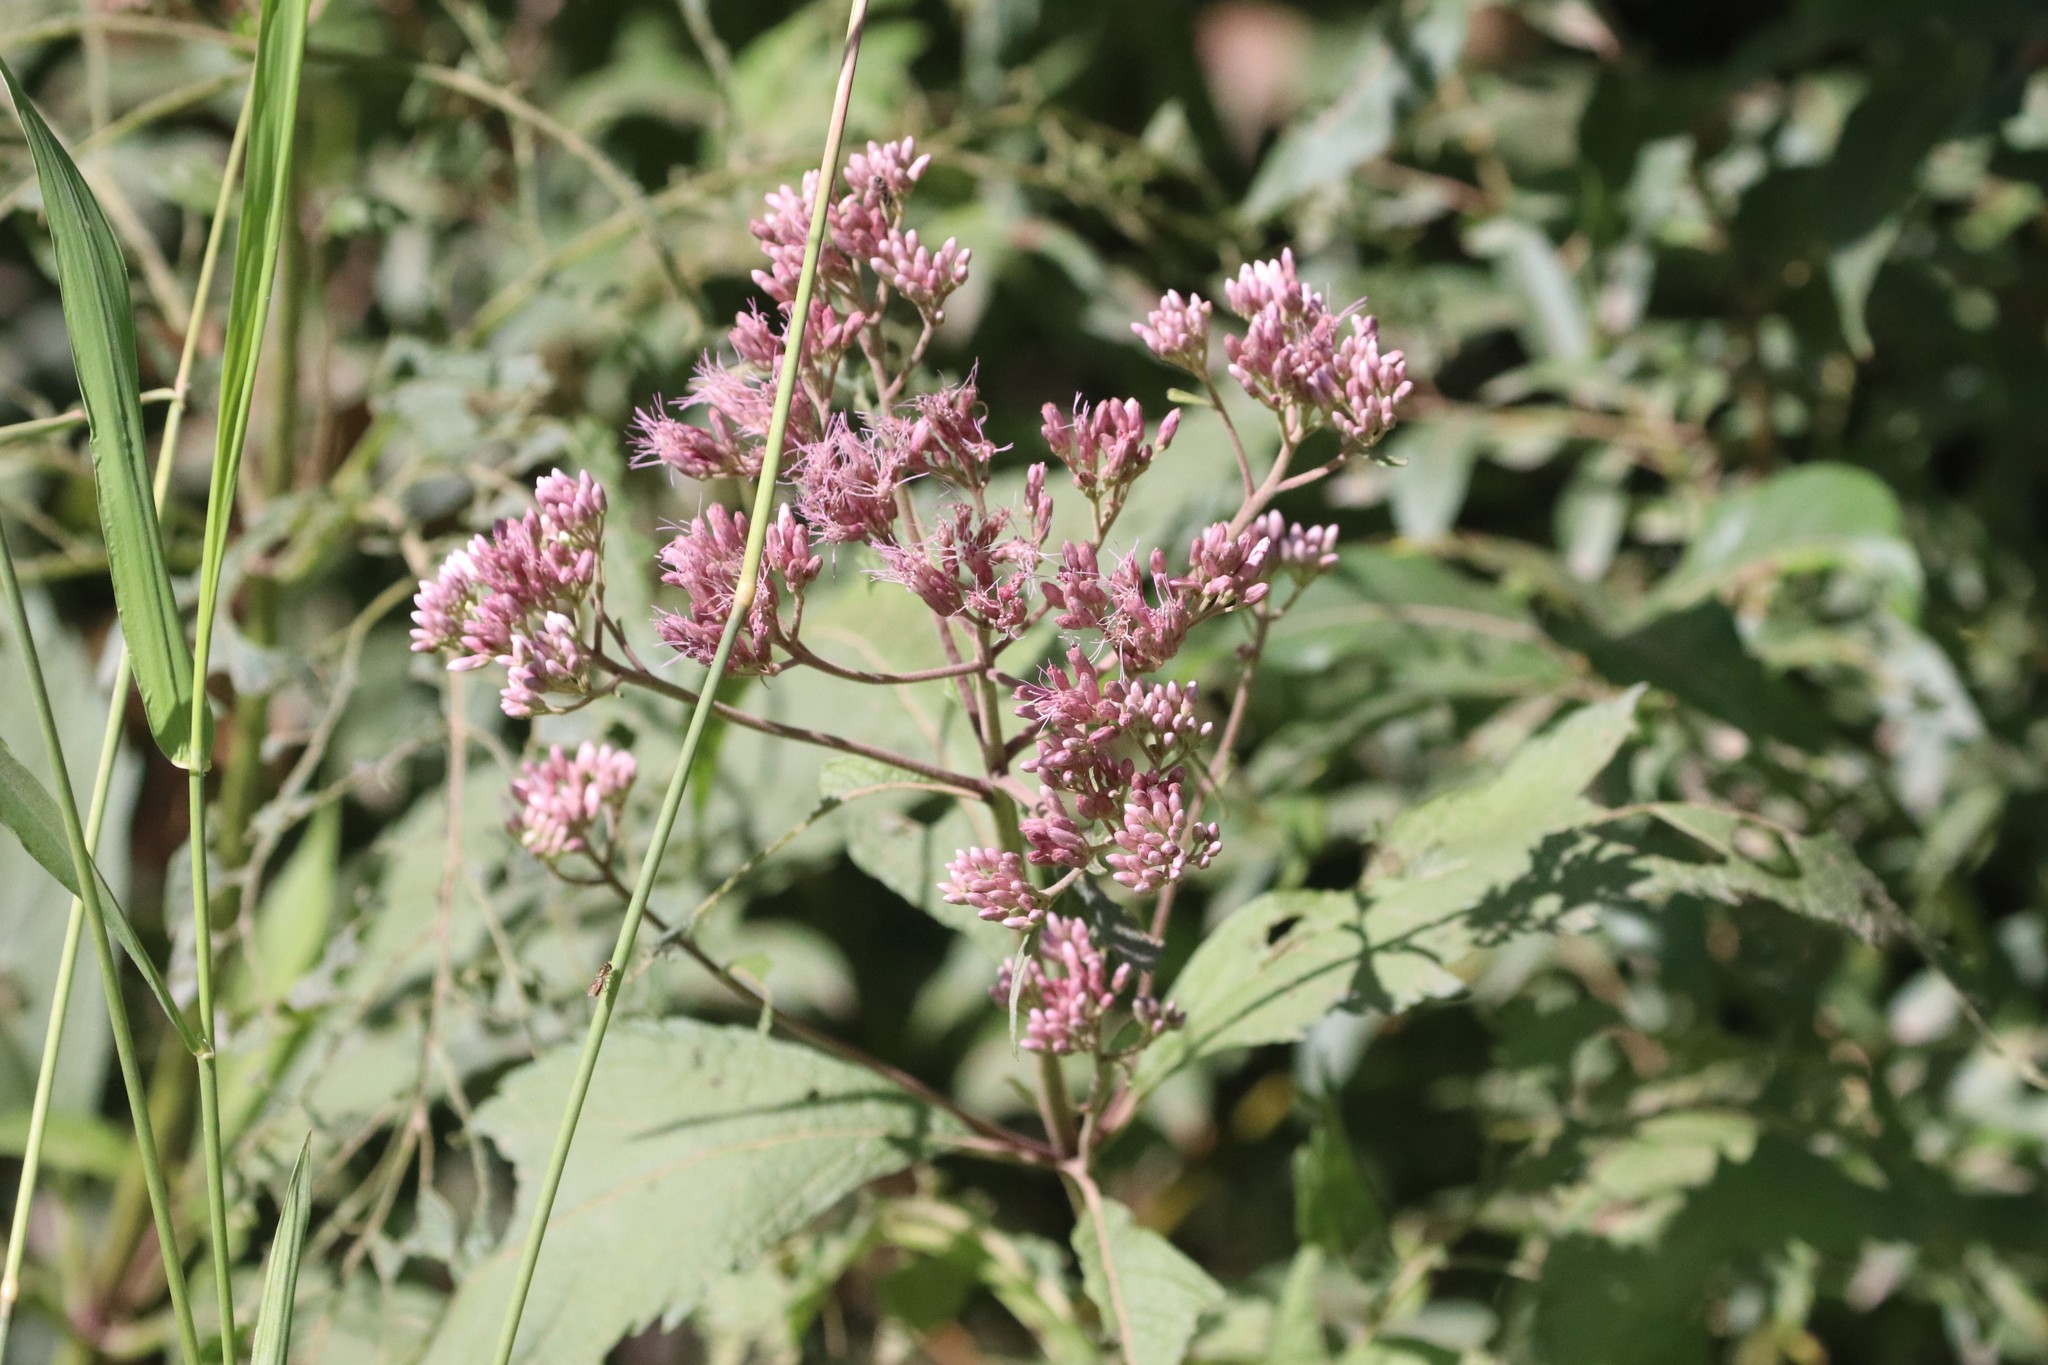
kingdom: Plantae
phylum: Tracheophyta
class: Magnoliopsida
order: Asterales
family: Asteraceae
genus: Eutrochium
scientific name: Eutrochium maculatum
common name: Spotted joe pye weed
